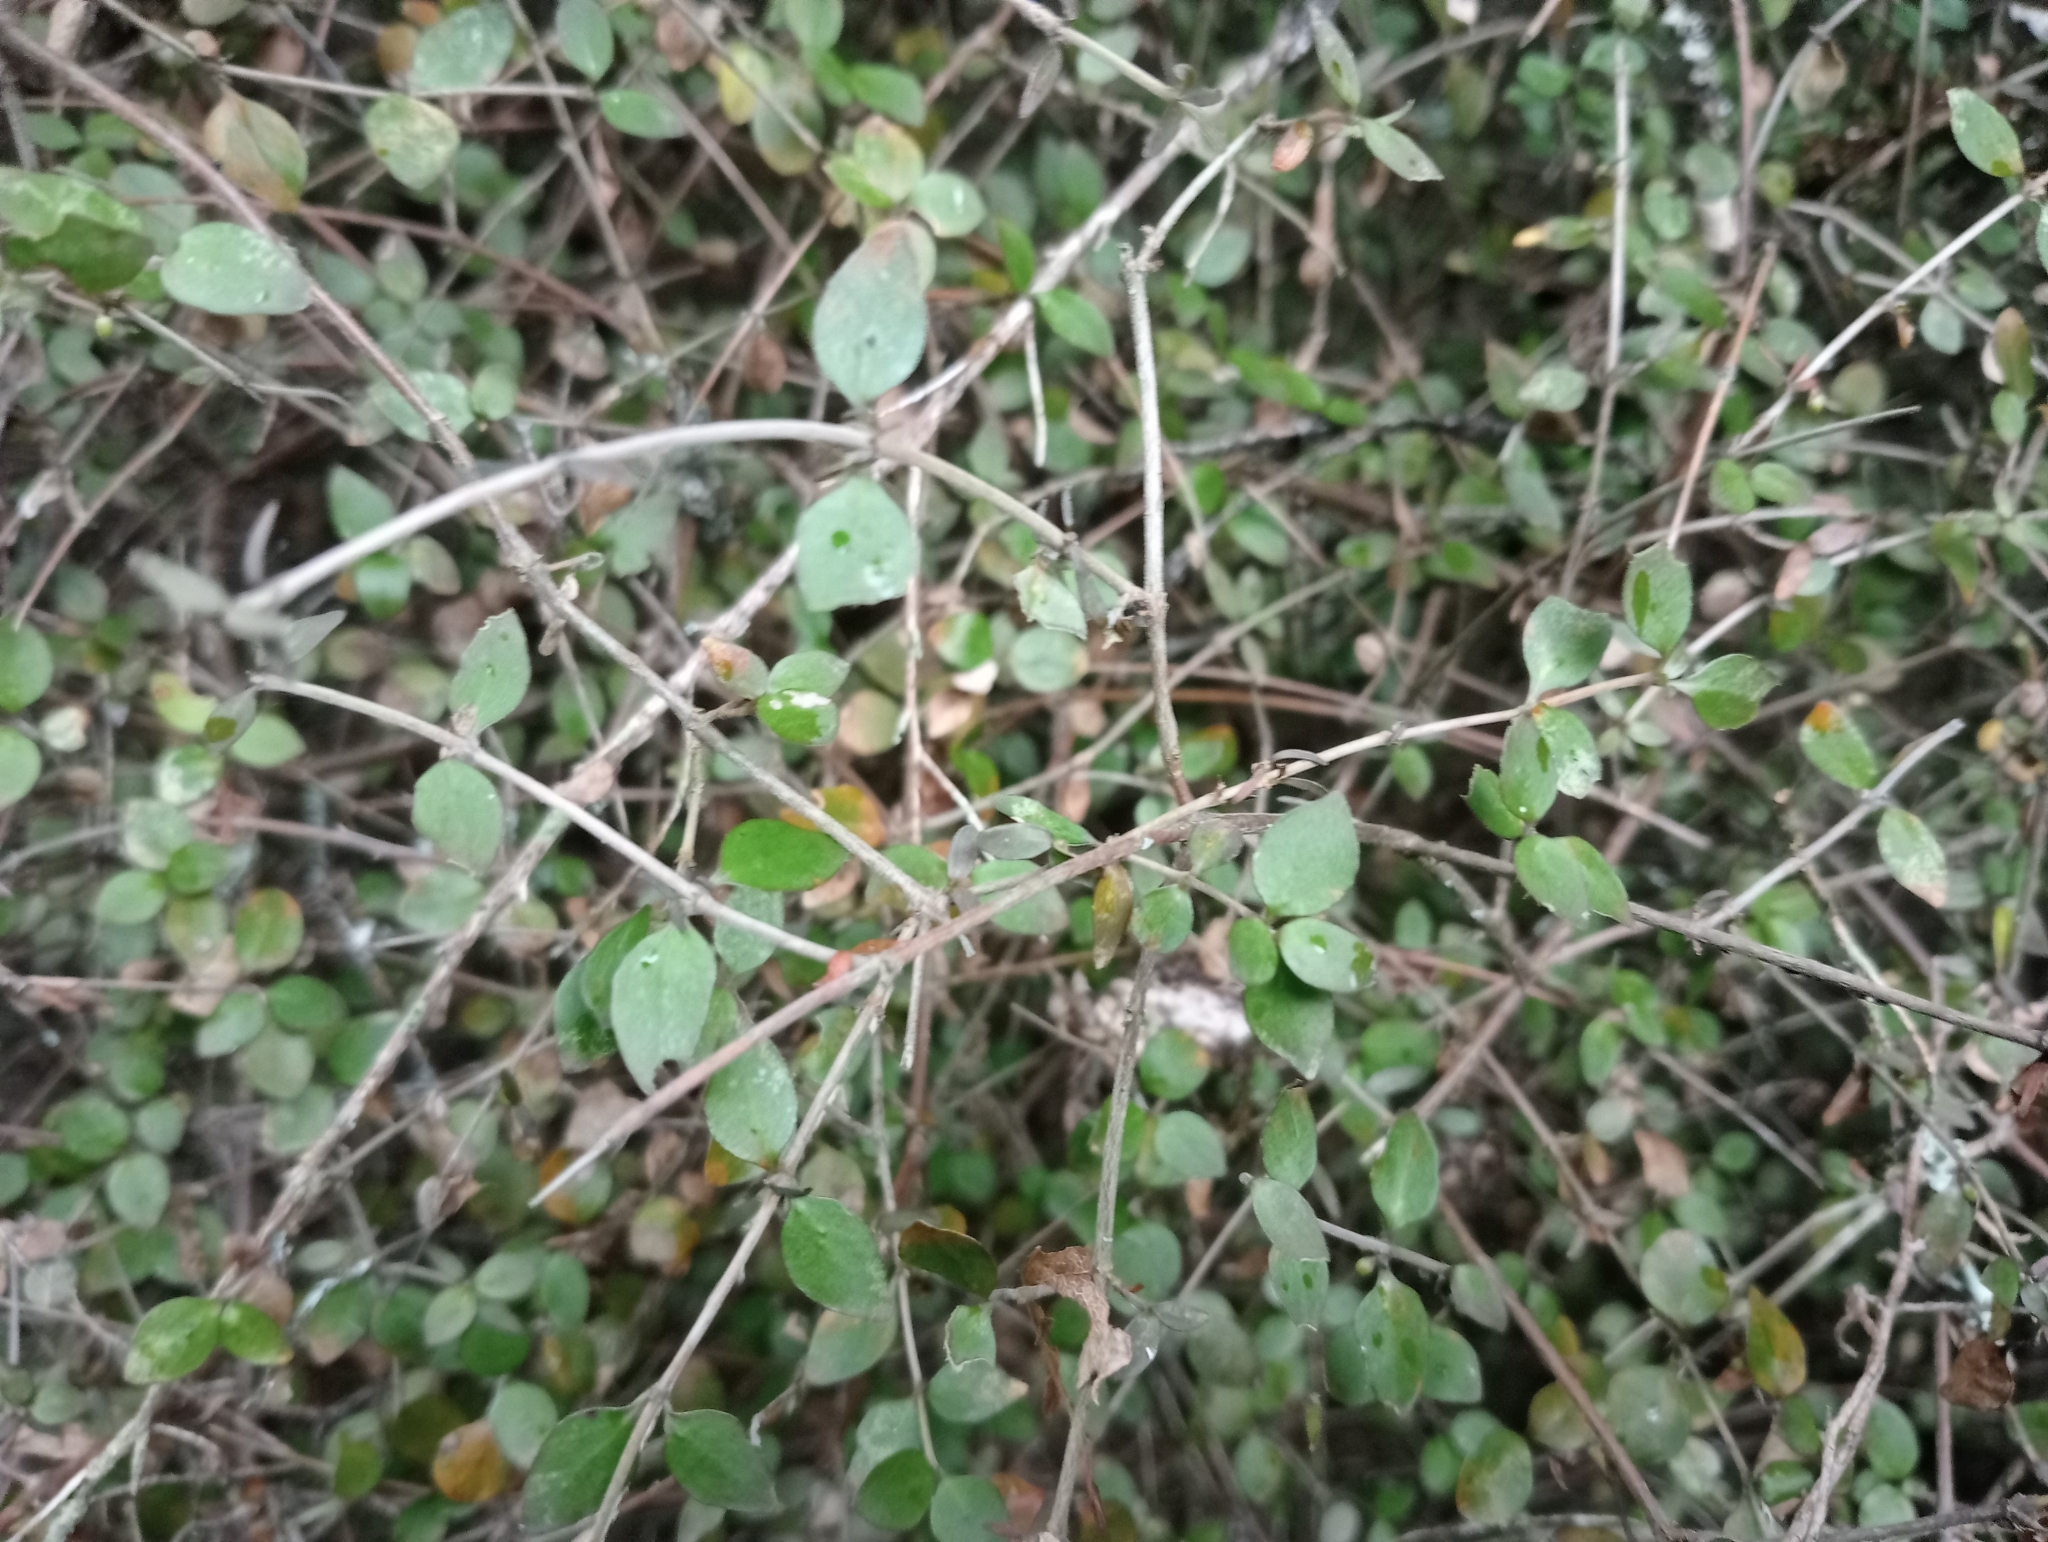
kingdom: Plantae
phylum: Tracheophyta
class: Magnoliopsida
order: Gentianales
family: Rubiaceae
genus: Coprosma
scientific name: Coprosma rhamnoides
